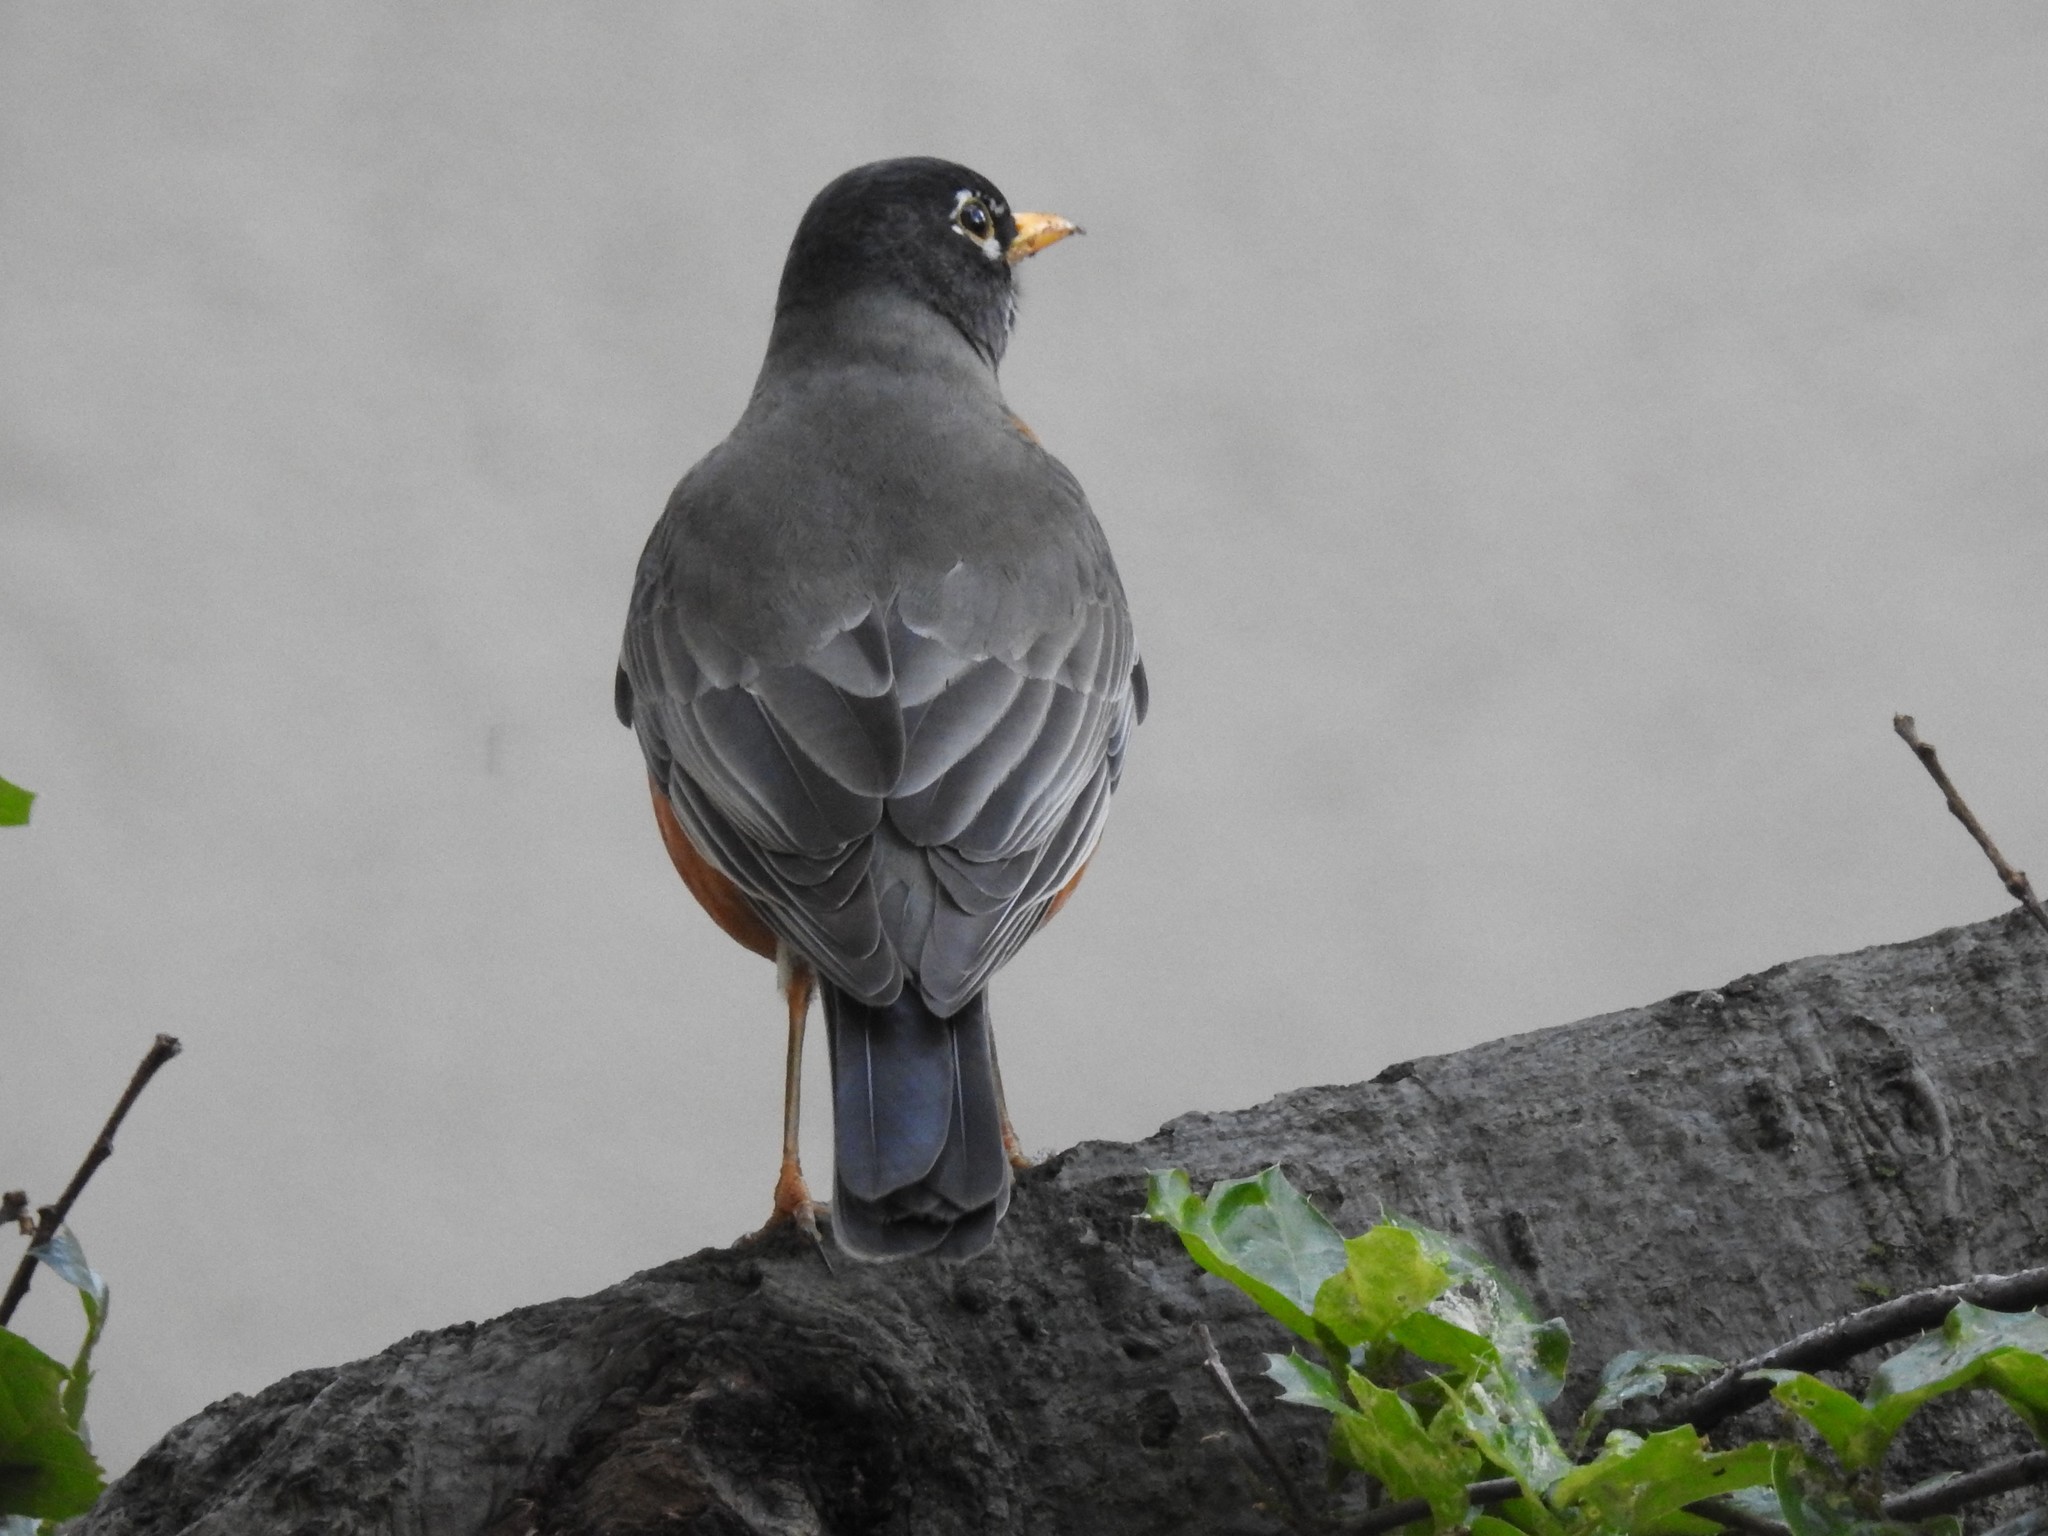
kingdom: Animalia
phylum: Chordata
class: Aves
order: Passeriformes
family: Turdidae
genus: Turdus
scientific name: Turdus migratorius
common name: American robin
